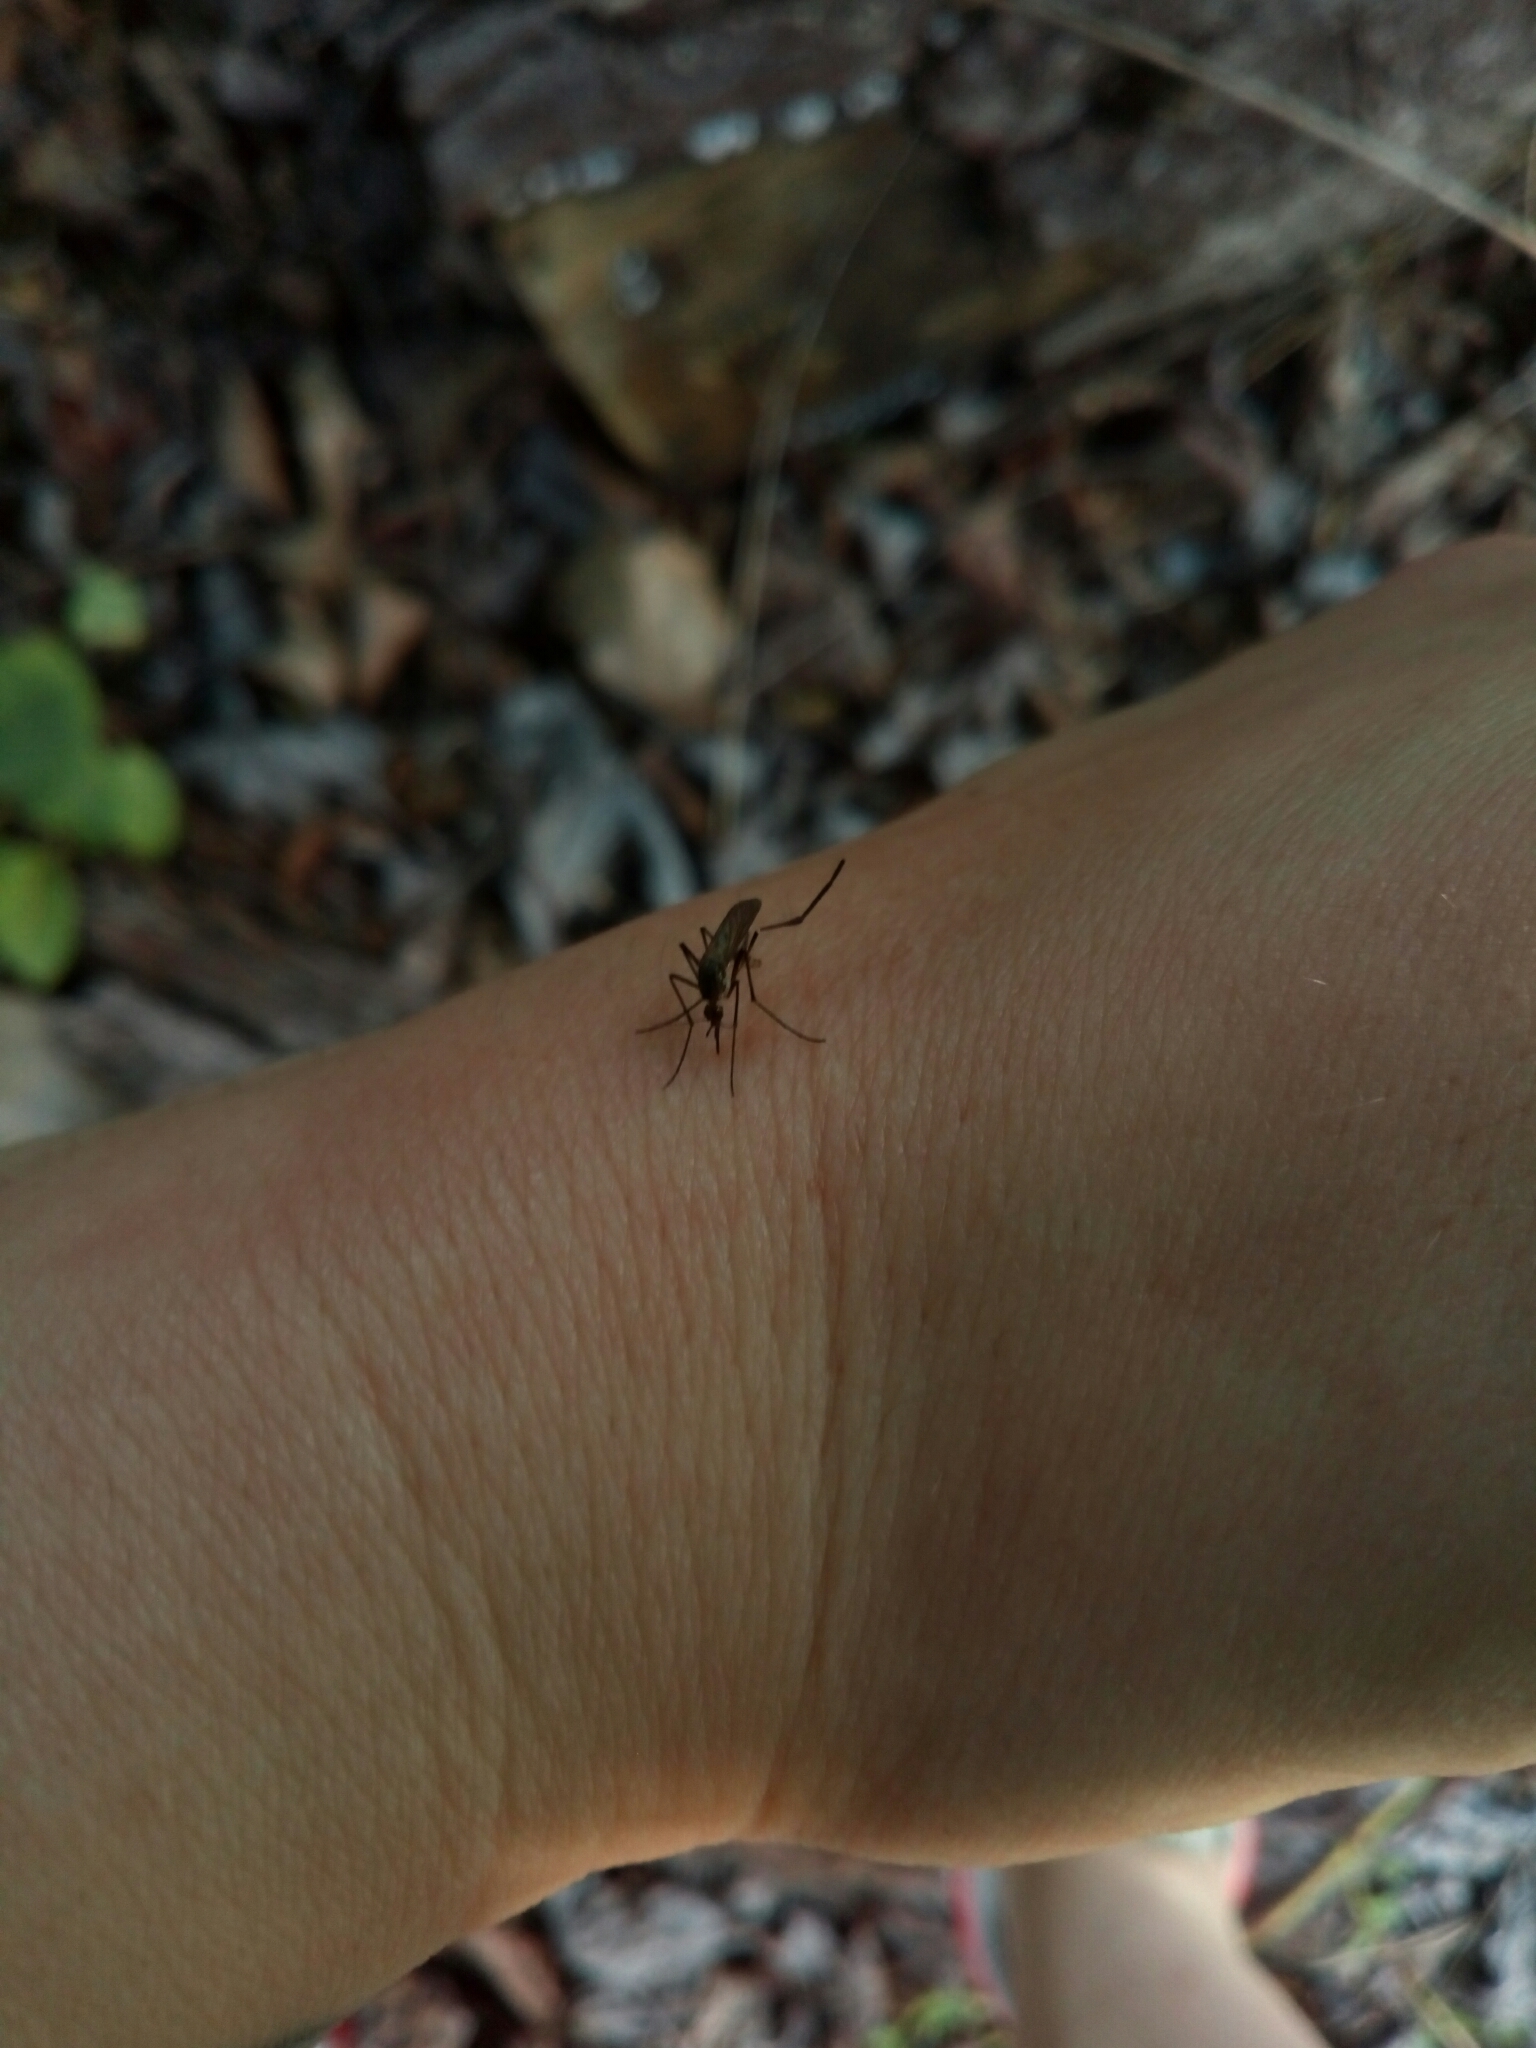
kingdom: Animalia
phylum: Arthropoda
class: Insecta
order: Diptera
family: Culicidae
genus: Psorophora
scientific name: Psorophora ferox
